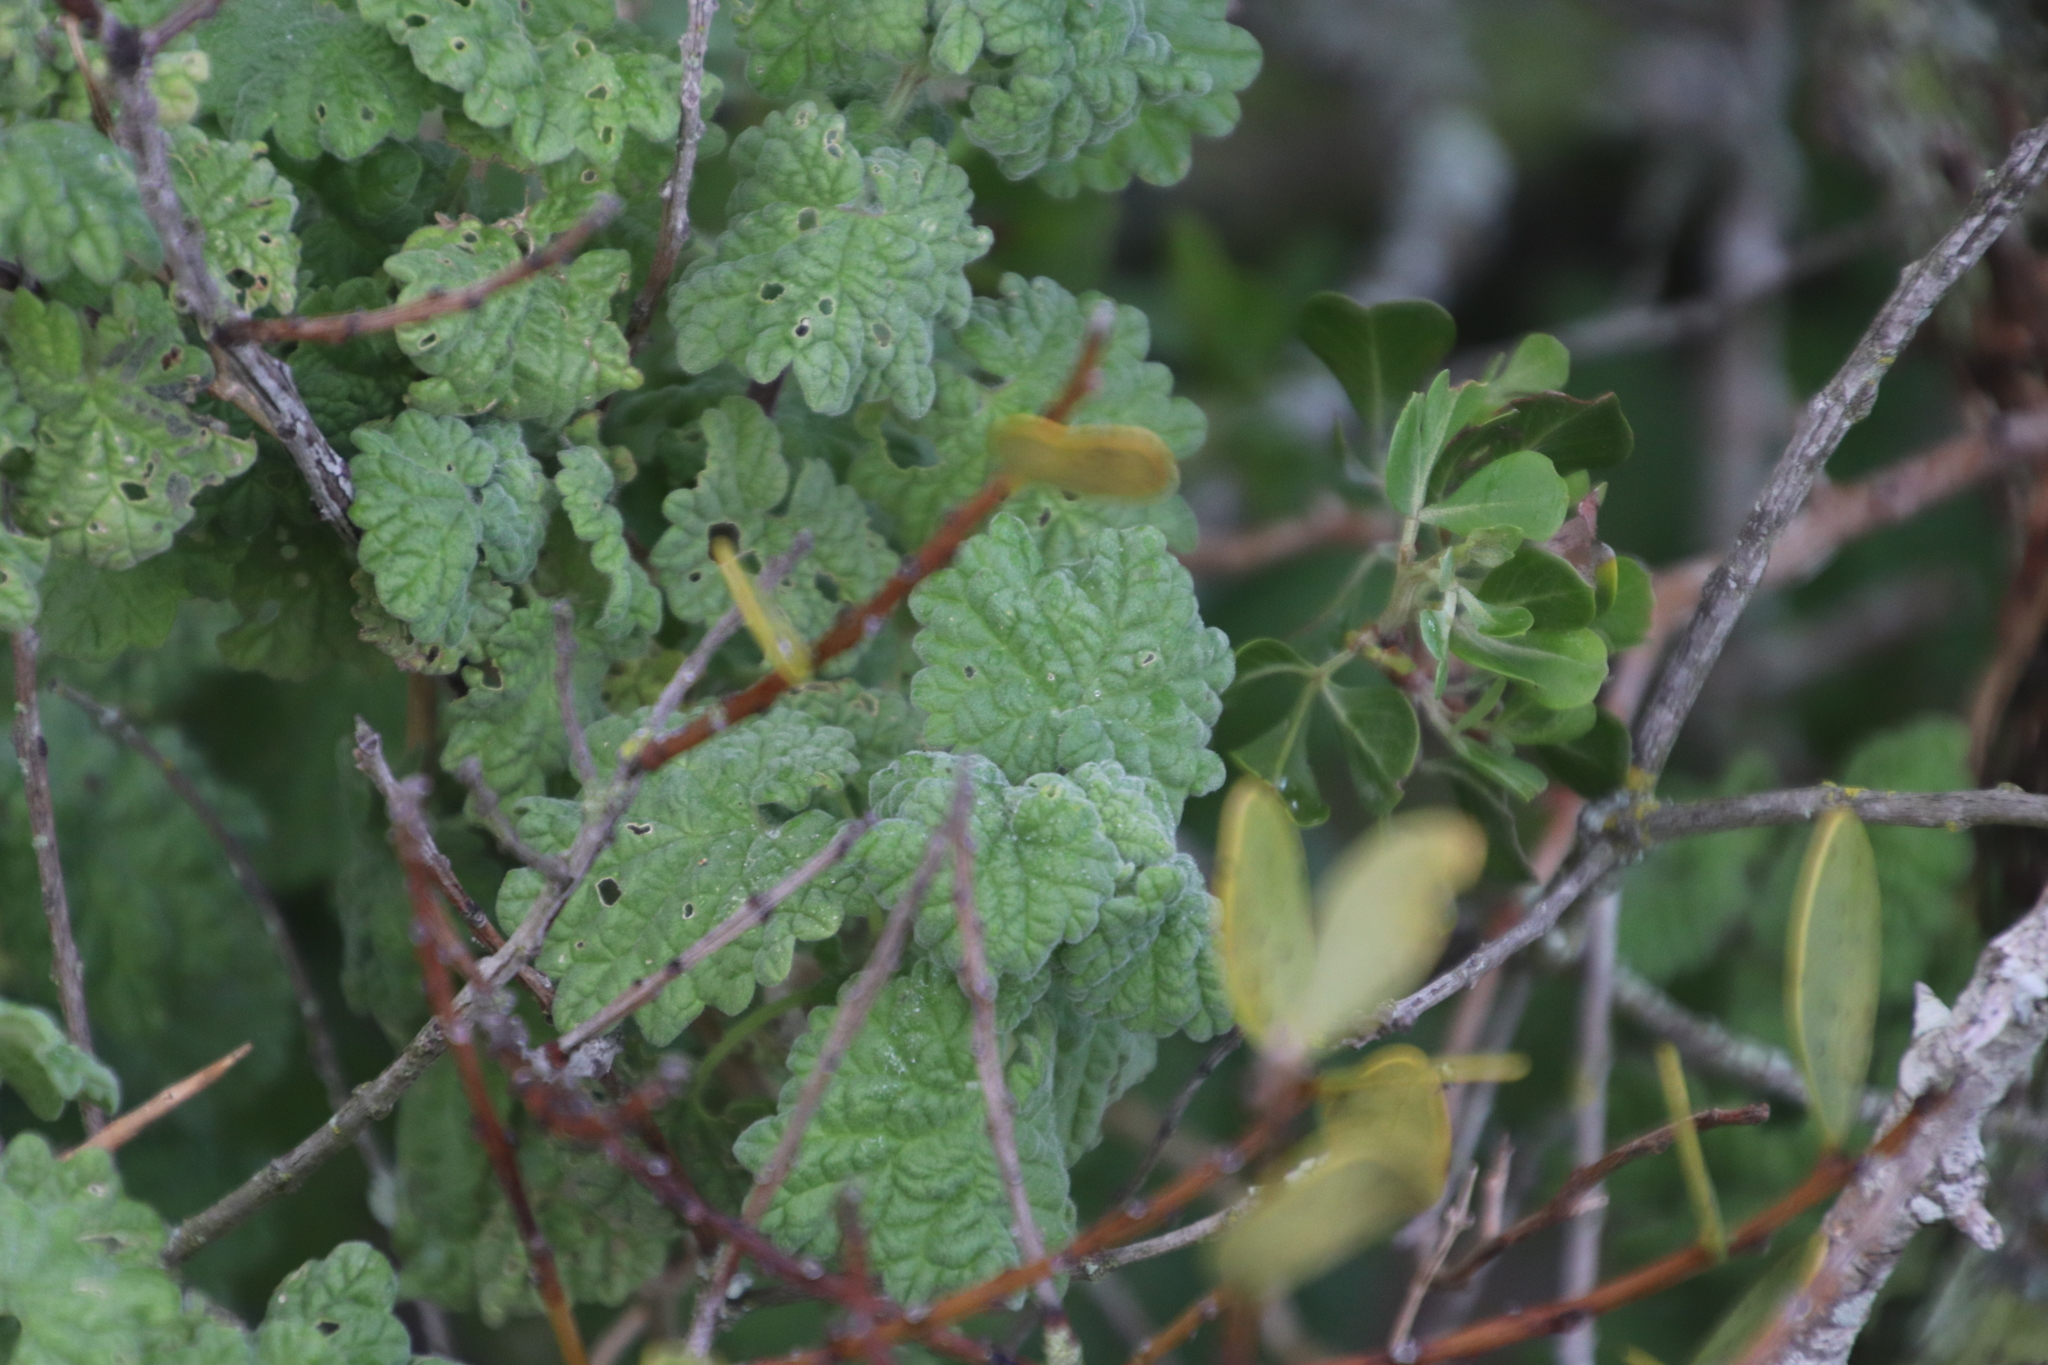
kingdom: Plantae
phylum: Tracheophyta
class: Magnoliopsida
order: Lamiales
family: Lamiaceae
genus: Pseudodictamnus
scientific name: Pseudodictamnus africanus
